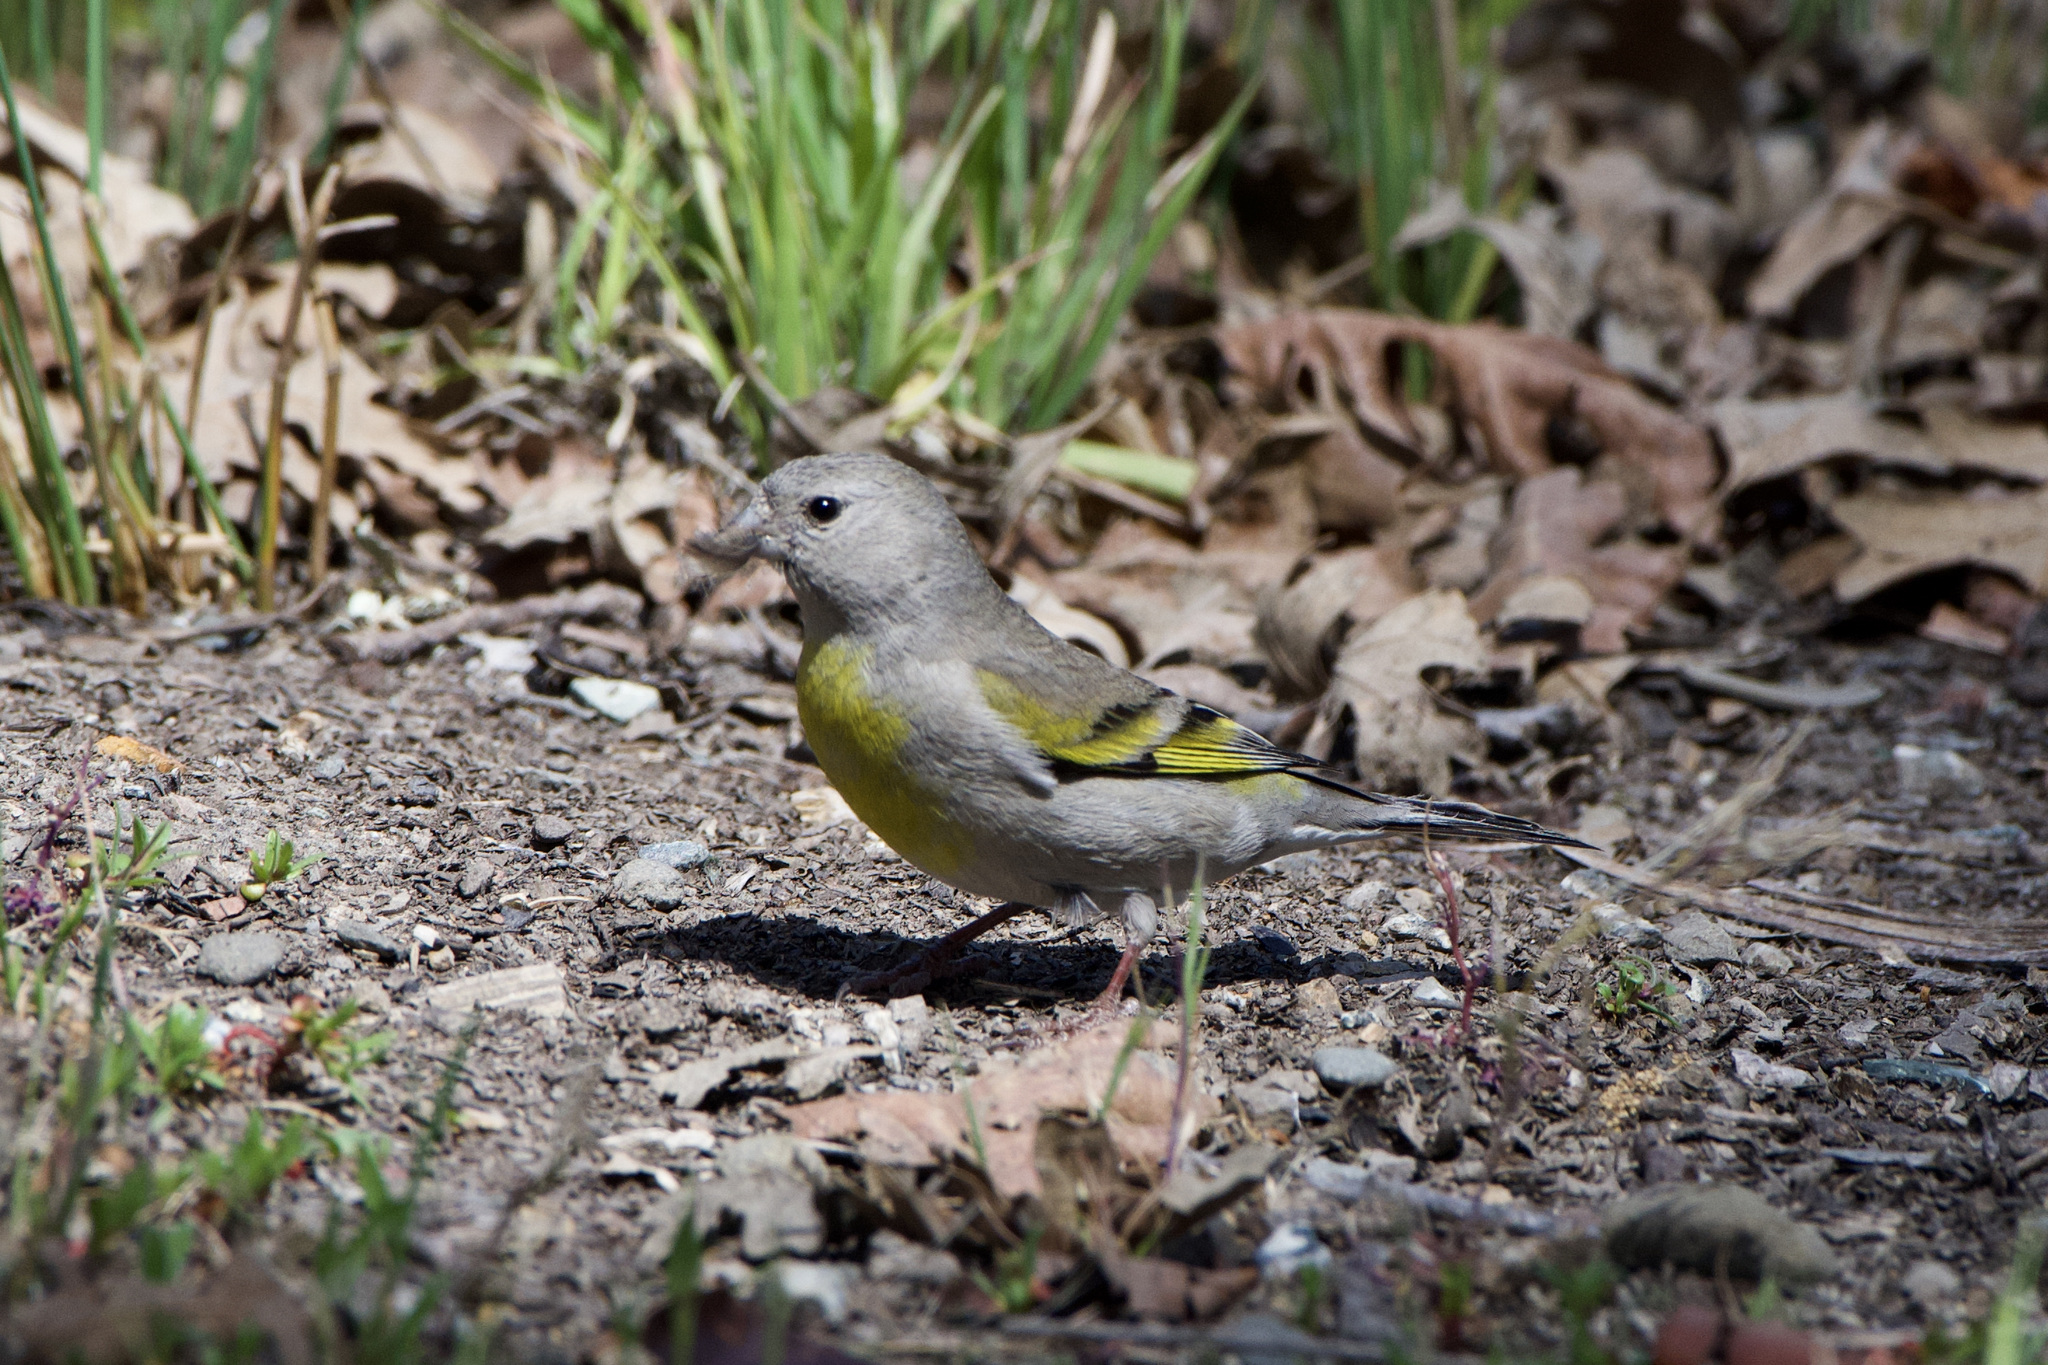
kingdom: Animalia
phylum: Chordata
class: Aves
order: Passeriformes
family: Fringillidae
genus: Spinus
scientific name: Spinus lawrencei
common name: Lawrence's goldfinch
